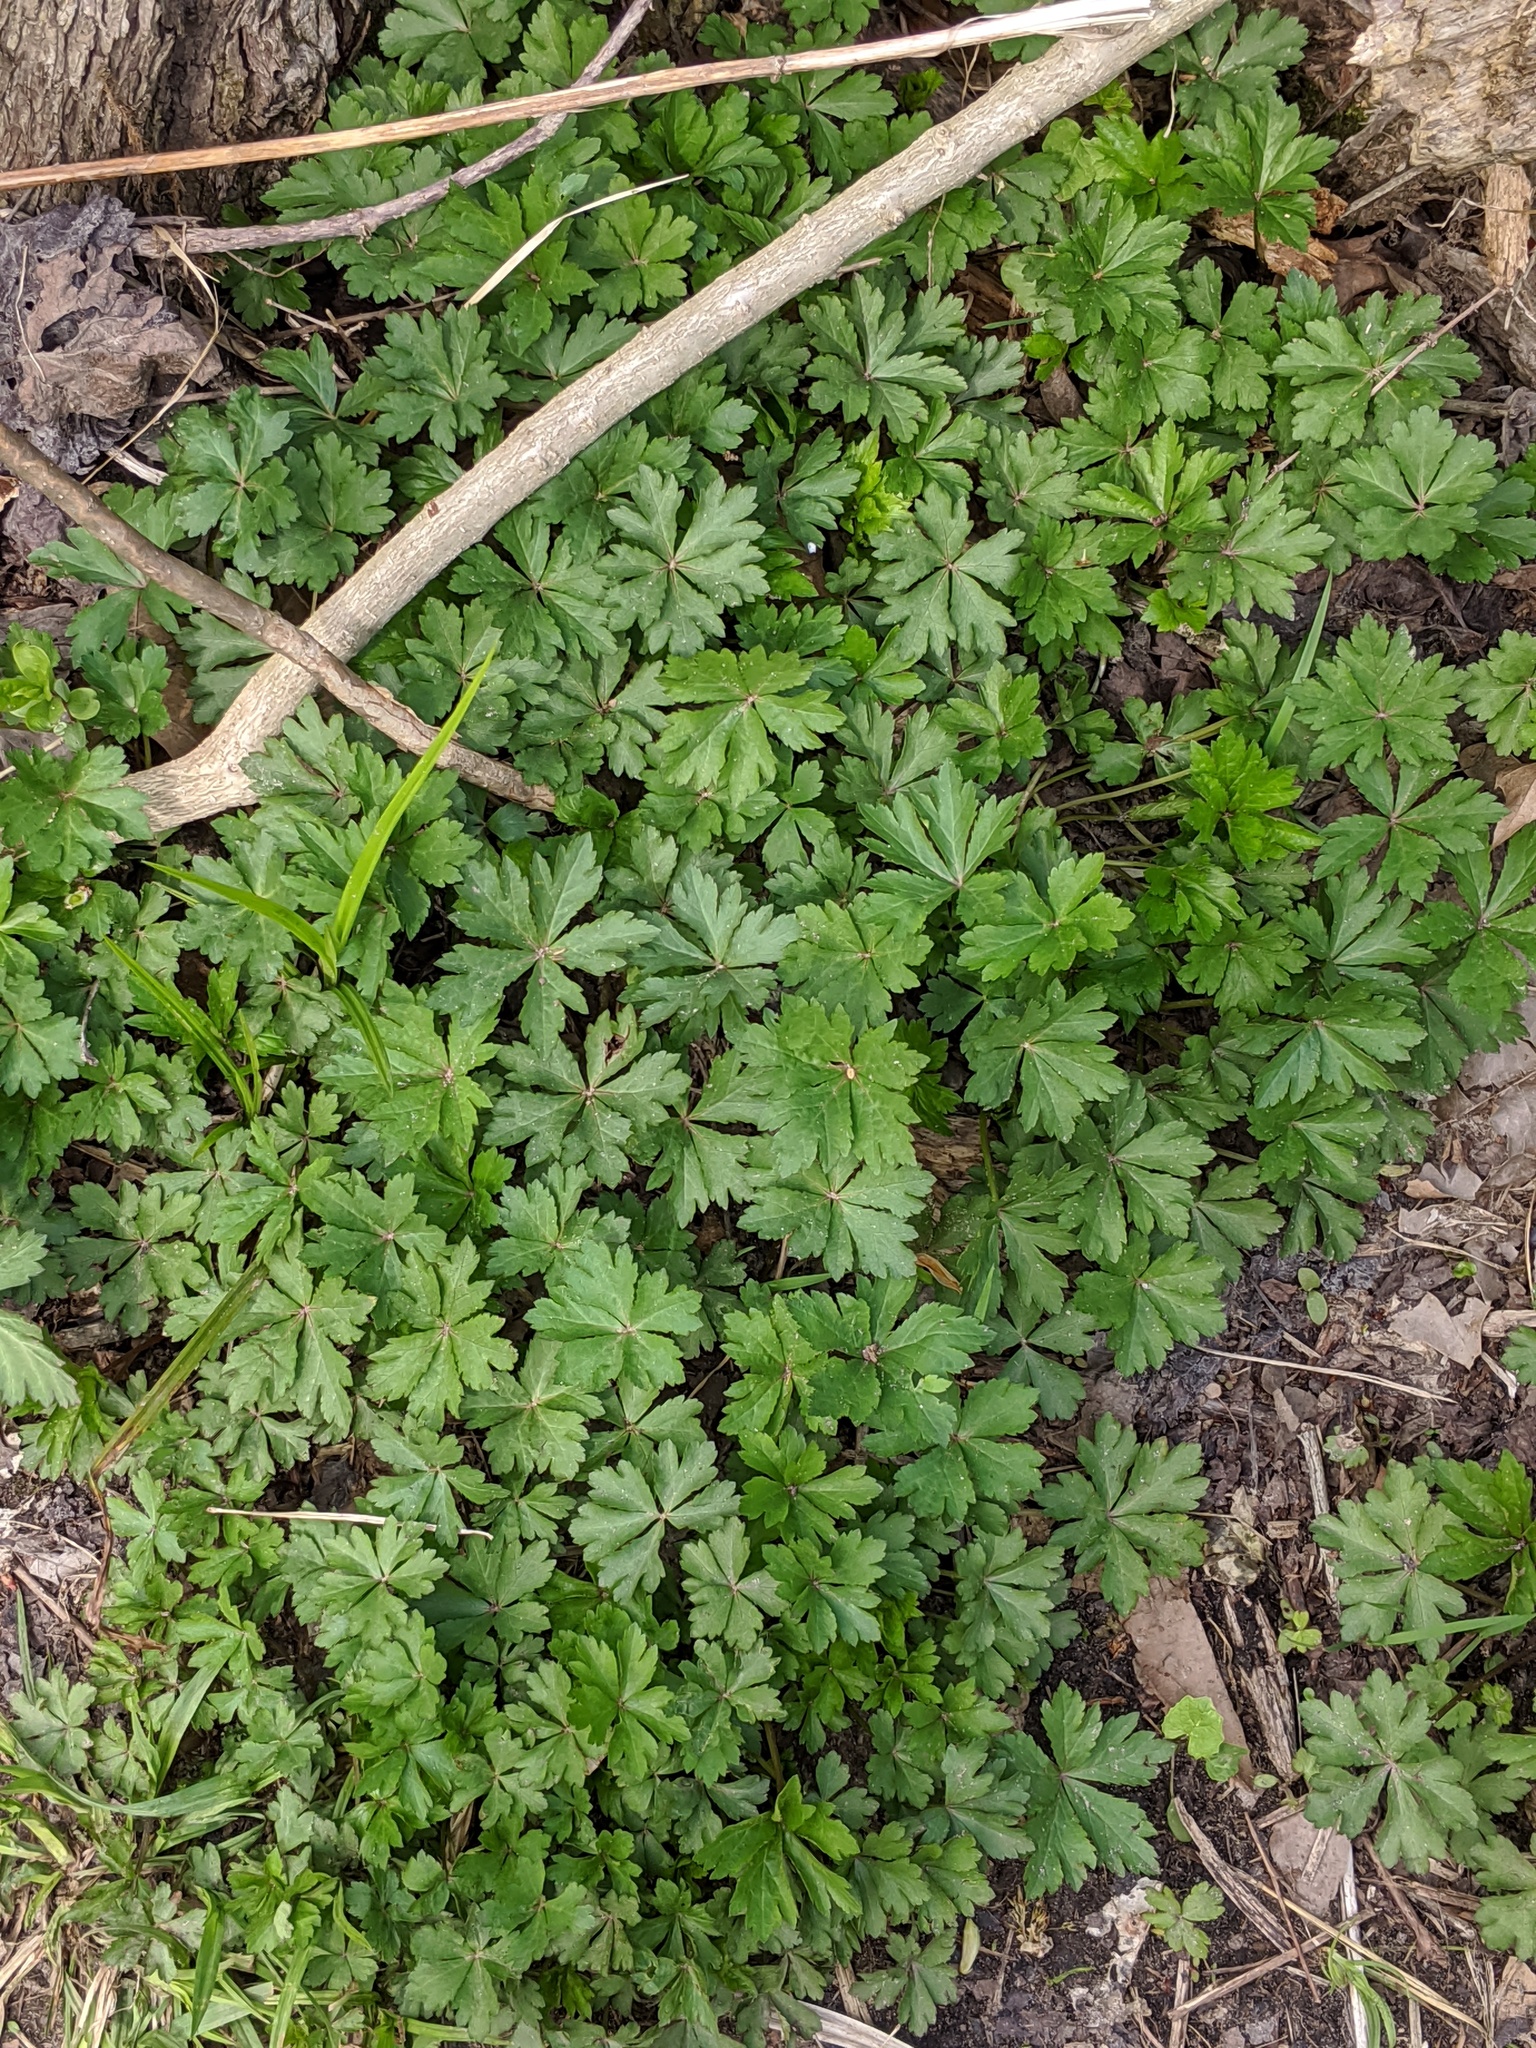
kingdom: Plantae
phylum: Tracheophyta
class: Magnoliopsida
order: Apiales
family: Apiaceae
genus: Sanicula
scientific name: Sanicula odorata
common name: Cluster sanicle
